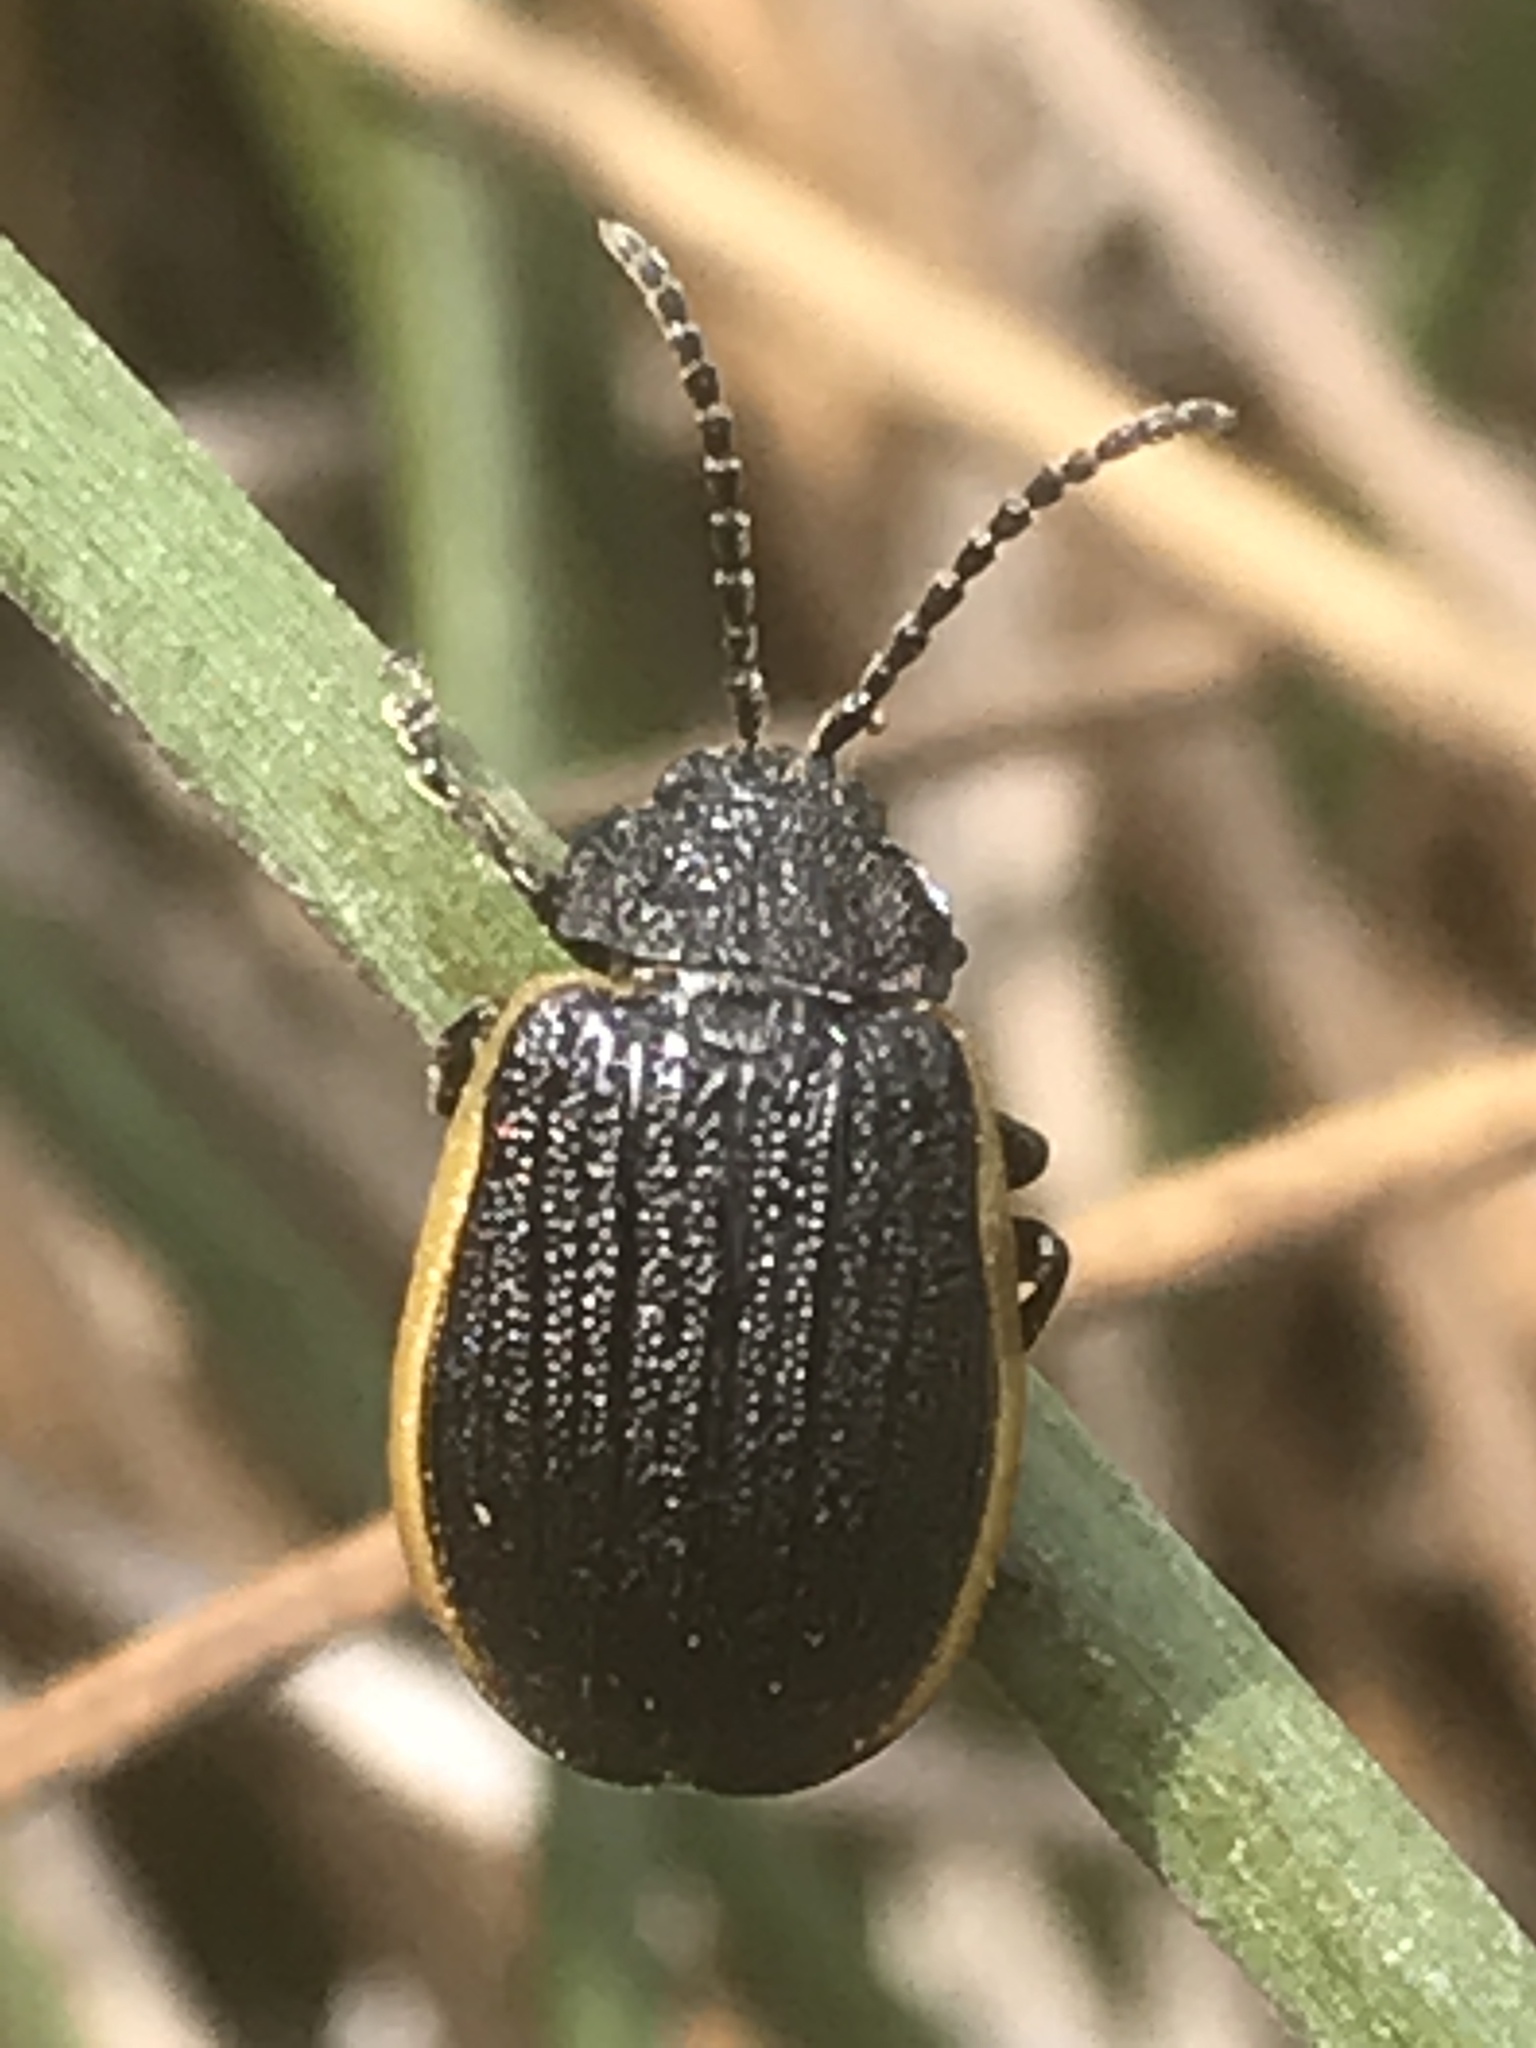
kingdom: Animalia
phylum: Arthropoda
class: Insecta
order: Coleoptera
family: Chrysomelidae
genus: Galeruca
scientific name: Galeruca rudis
